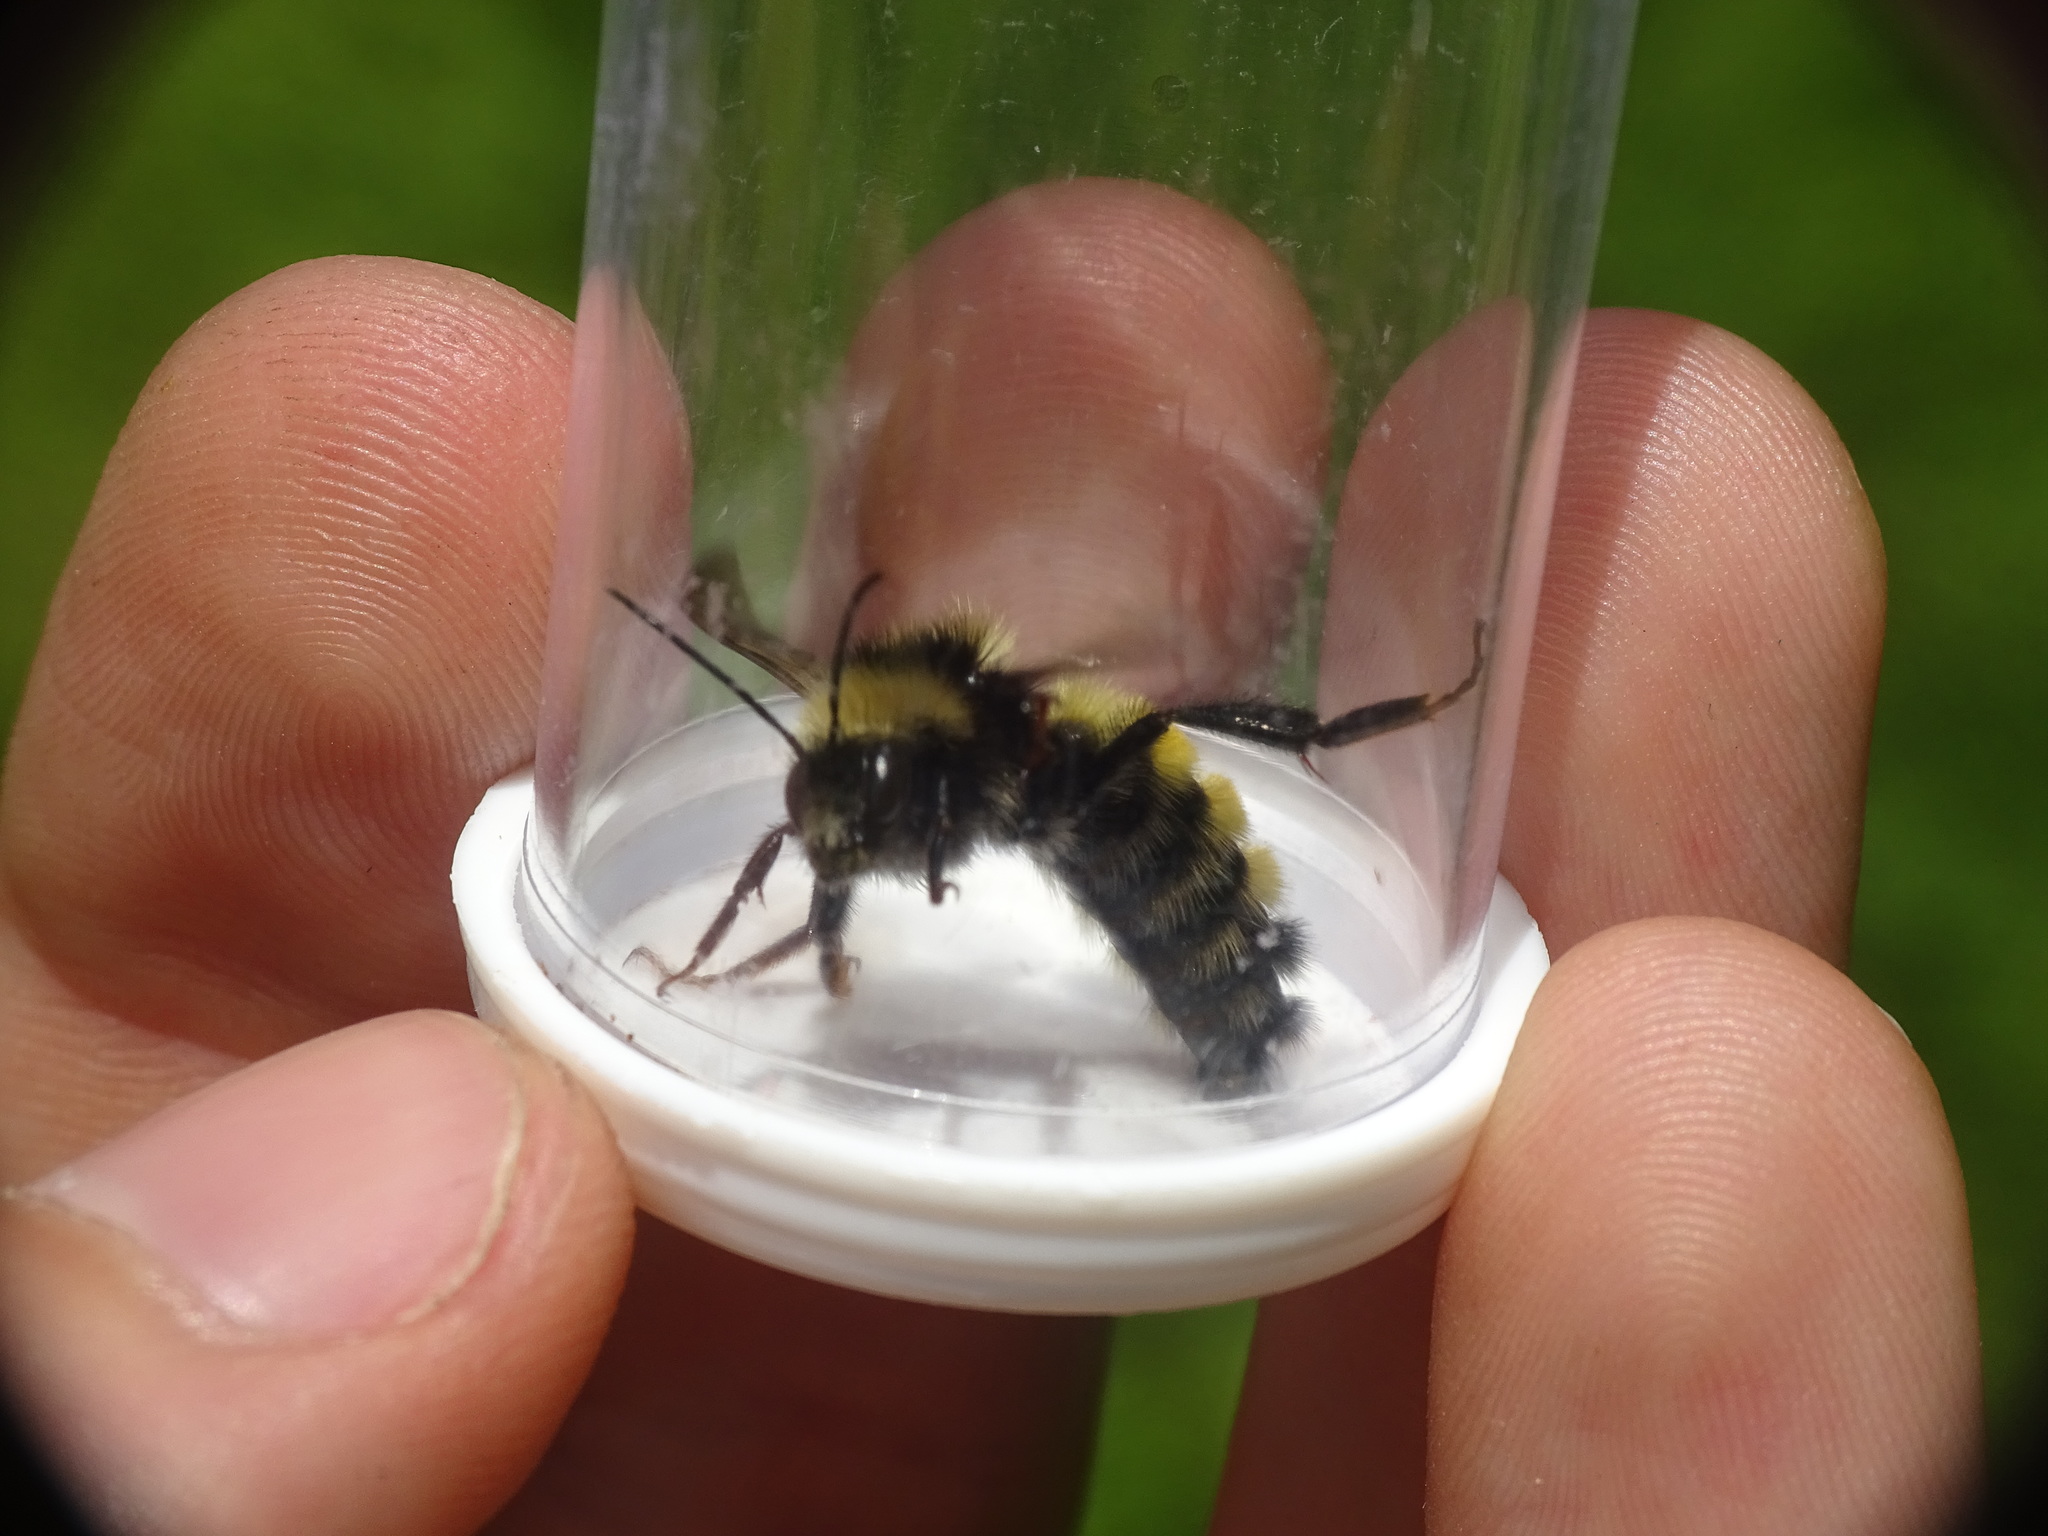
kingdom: Animalia
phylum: Arthropoda
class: Insecta
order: Hymenoptera
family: Apidae
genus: Bombus
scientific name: Bombus borealis
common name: Northern amber bumble bee
